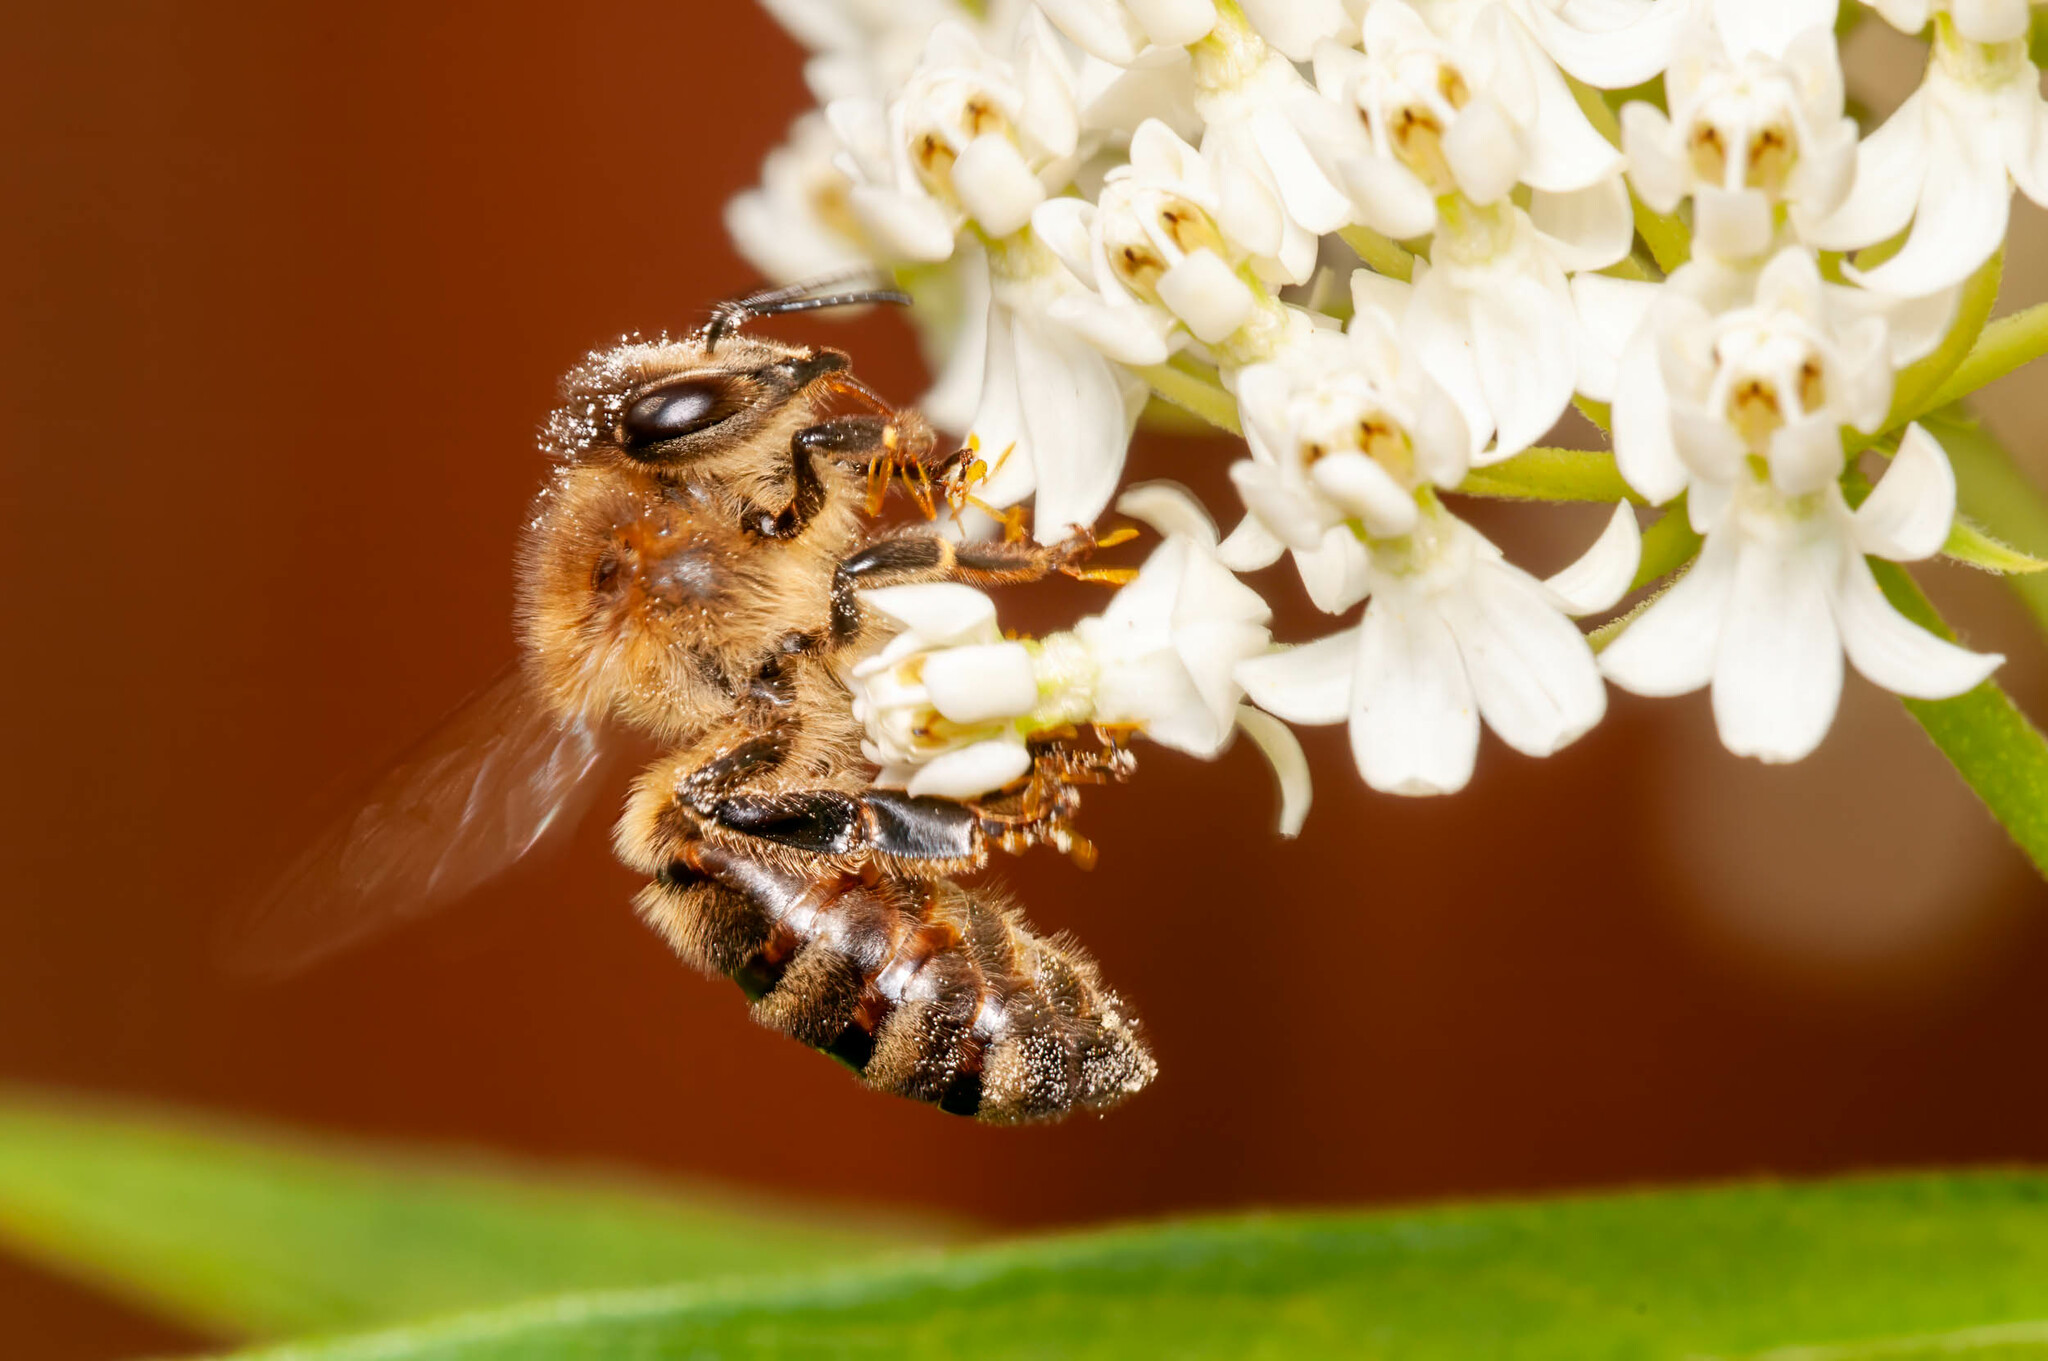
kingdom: Animalia
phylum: Arthropoda
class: Insecta
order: Hymenoptera
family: Apidae
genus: Apis
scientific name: Apis mellifera
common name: Honey bee
